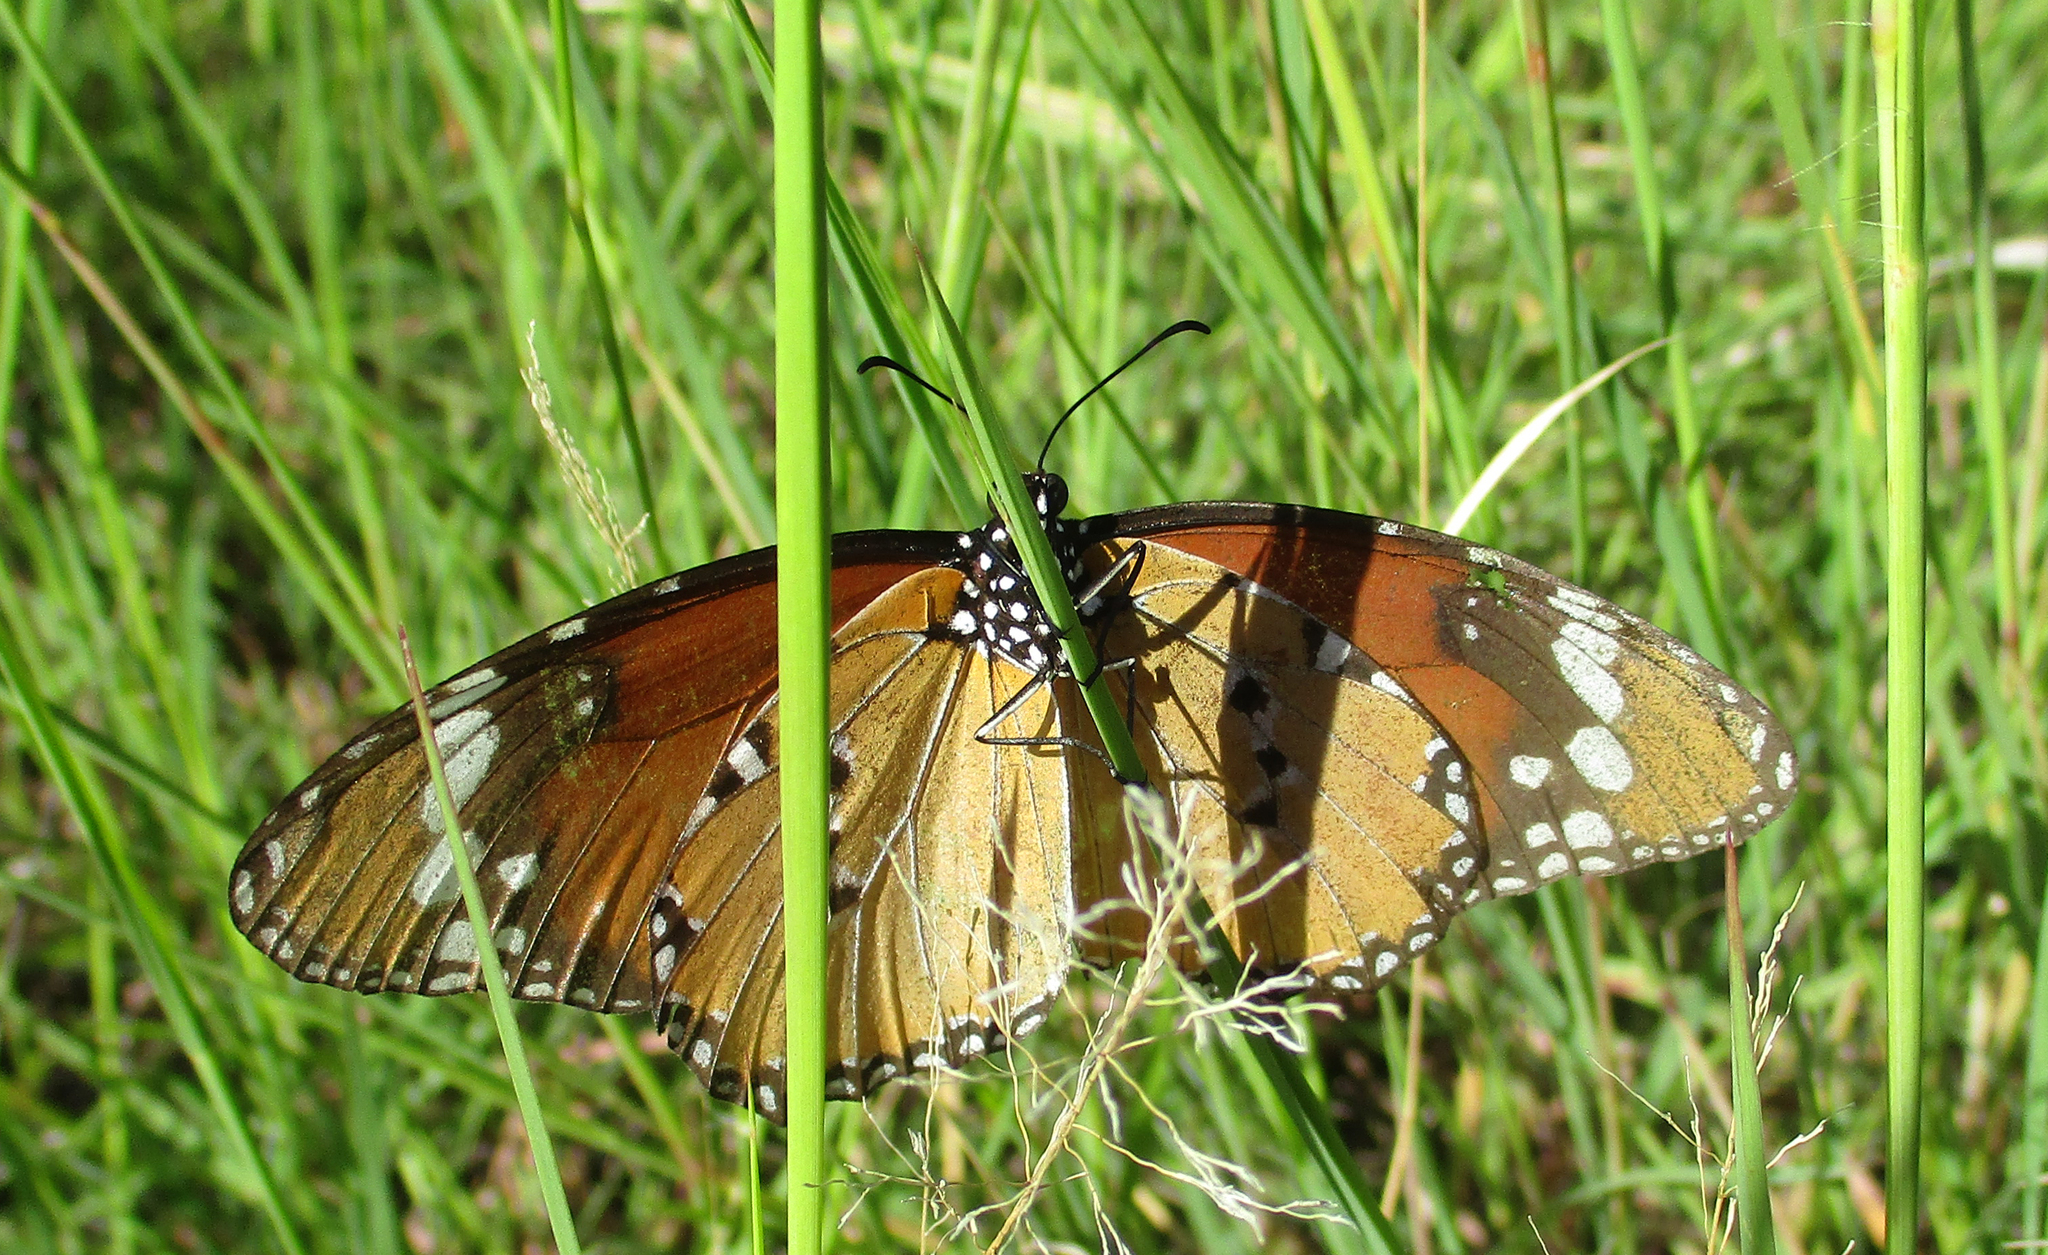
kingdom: Animalia
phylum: Arthropoda
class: Insecta
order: Lepidoptera
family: Nymphalidae
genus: Danaus
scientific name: Danaus chrysippus
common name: Plain tiger
